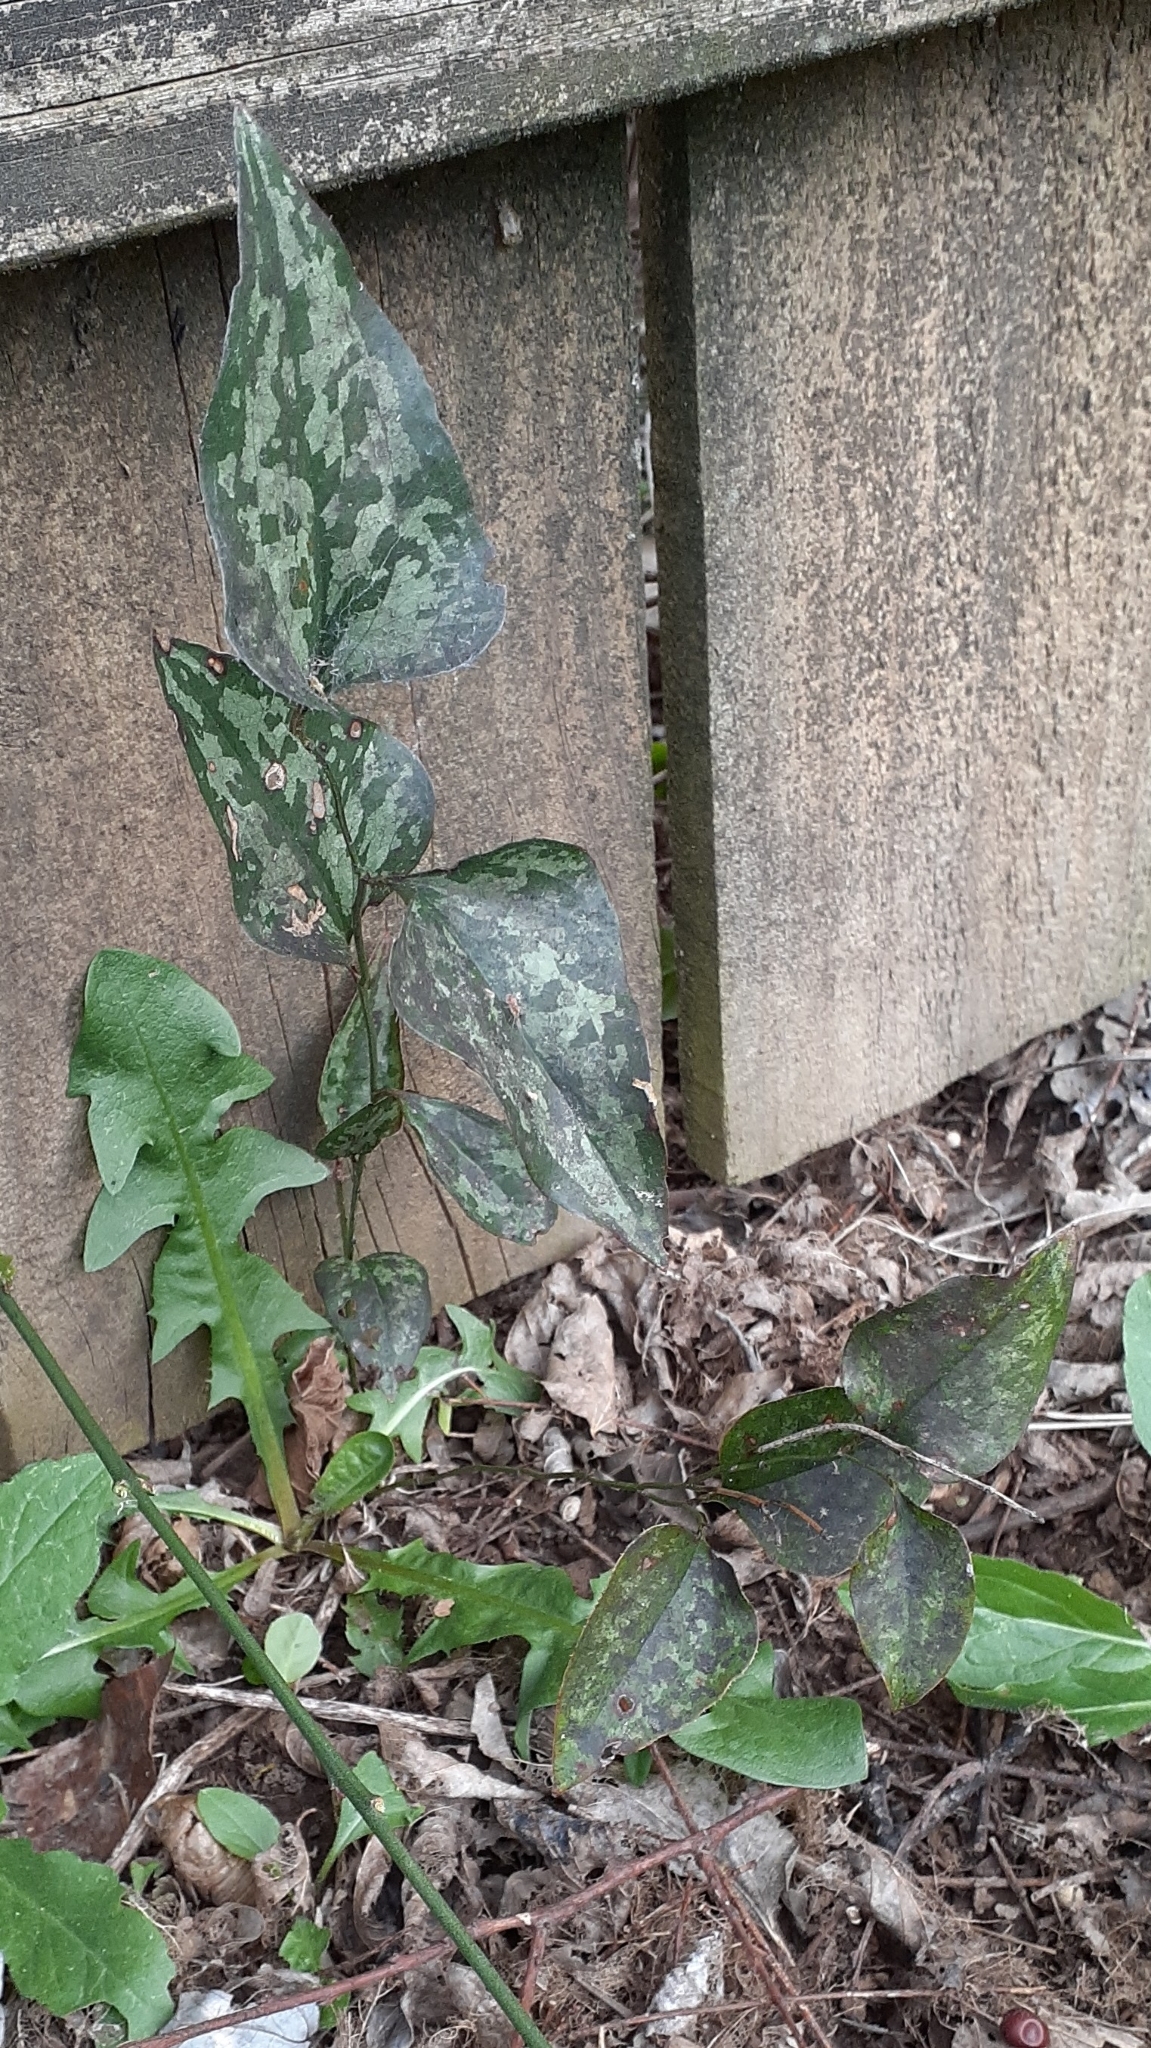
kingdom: Plantae
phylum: Tracheophyta
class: Liliopsida
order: Liliales
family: Smilacaceae
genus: Smilax
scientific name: Smilax bona-nox
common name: Catbrier
